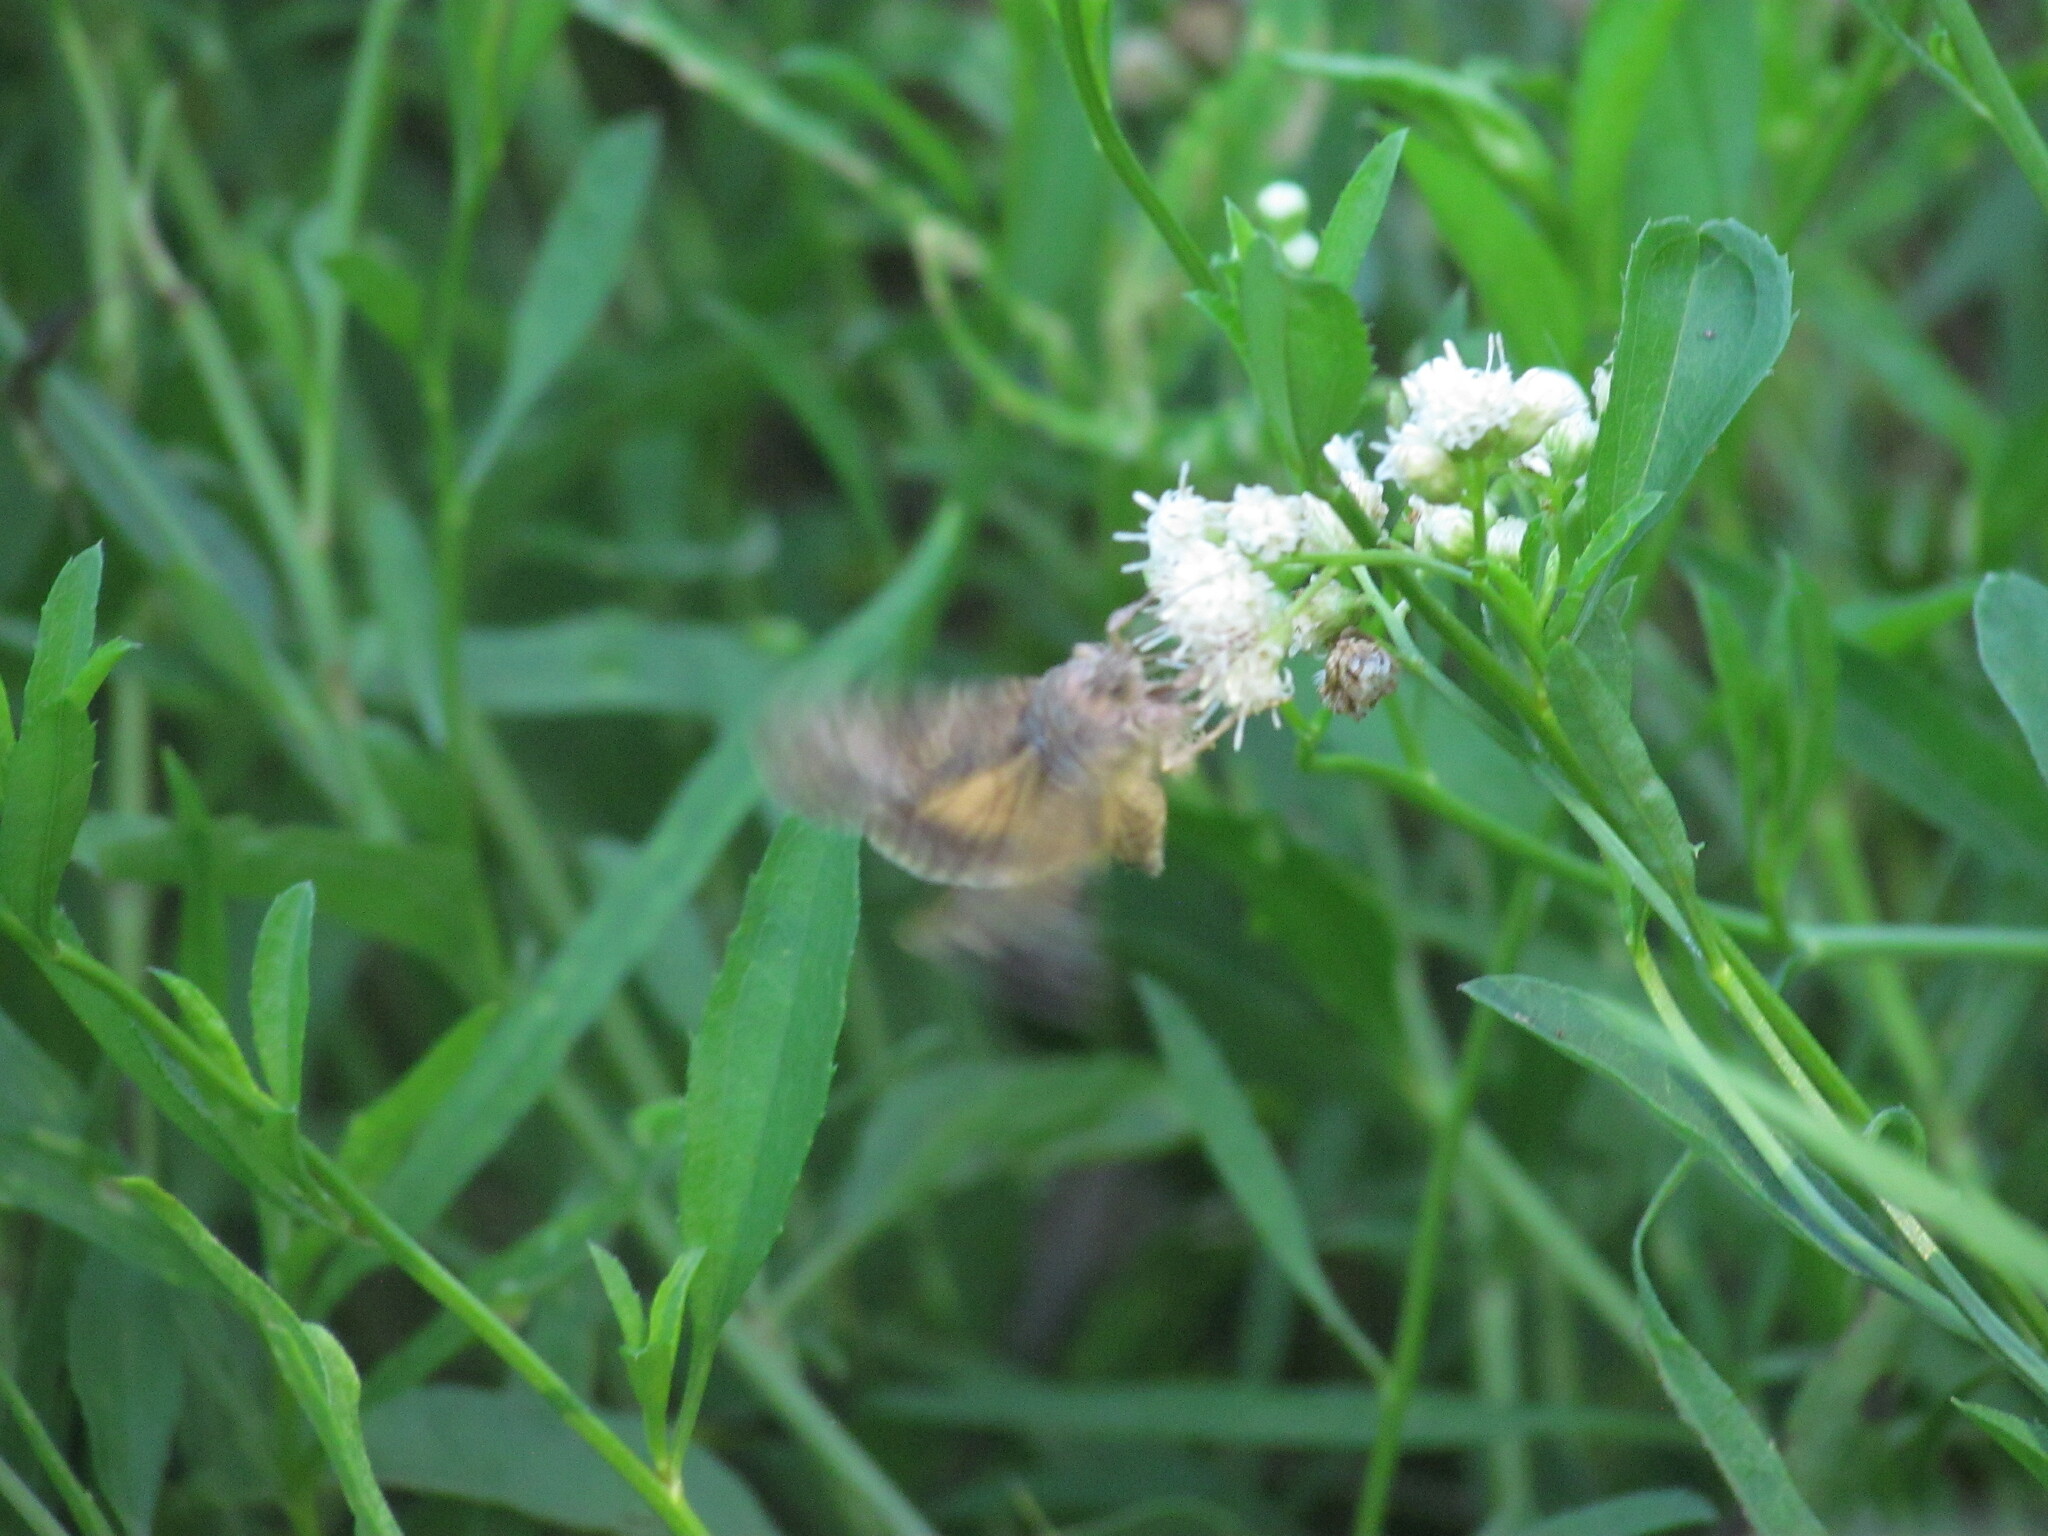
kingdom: Animalia
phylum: Arthropoda
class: Insecta
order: Lepidoptera
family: Noctuidae
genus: Rachiplusia
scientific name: Rachiplusia nu
